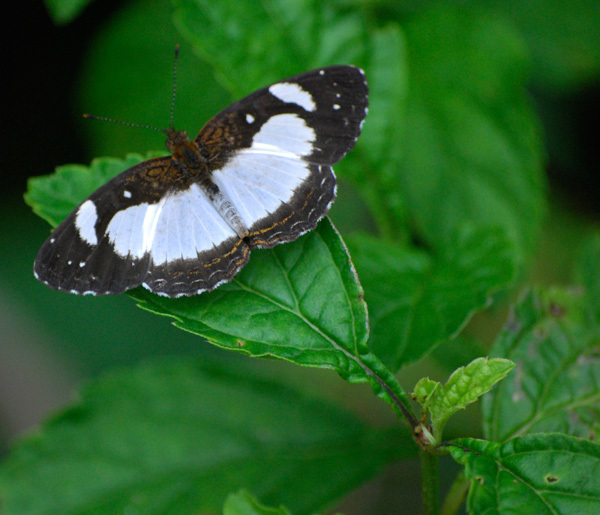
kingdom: Animalia
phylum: Arthropoda
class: Insecta
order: Lepidoptera
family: Nymphalidae
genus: Janatella
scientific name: Janatella leucodesma
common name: Whitened crescent
